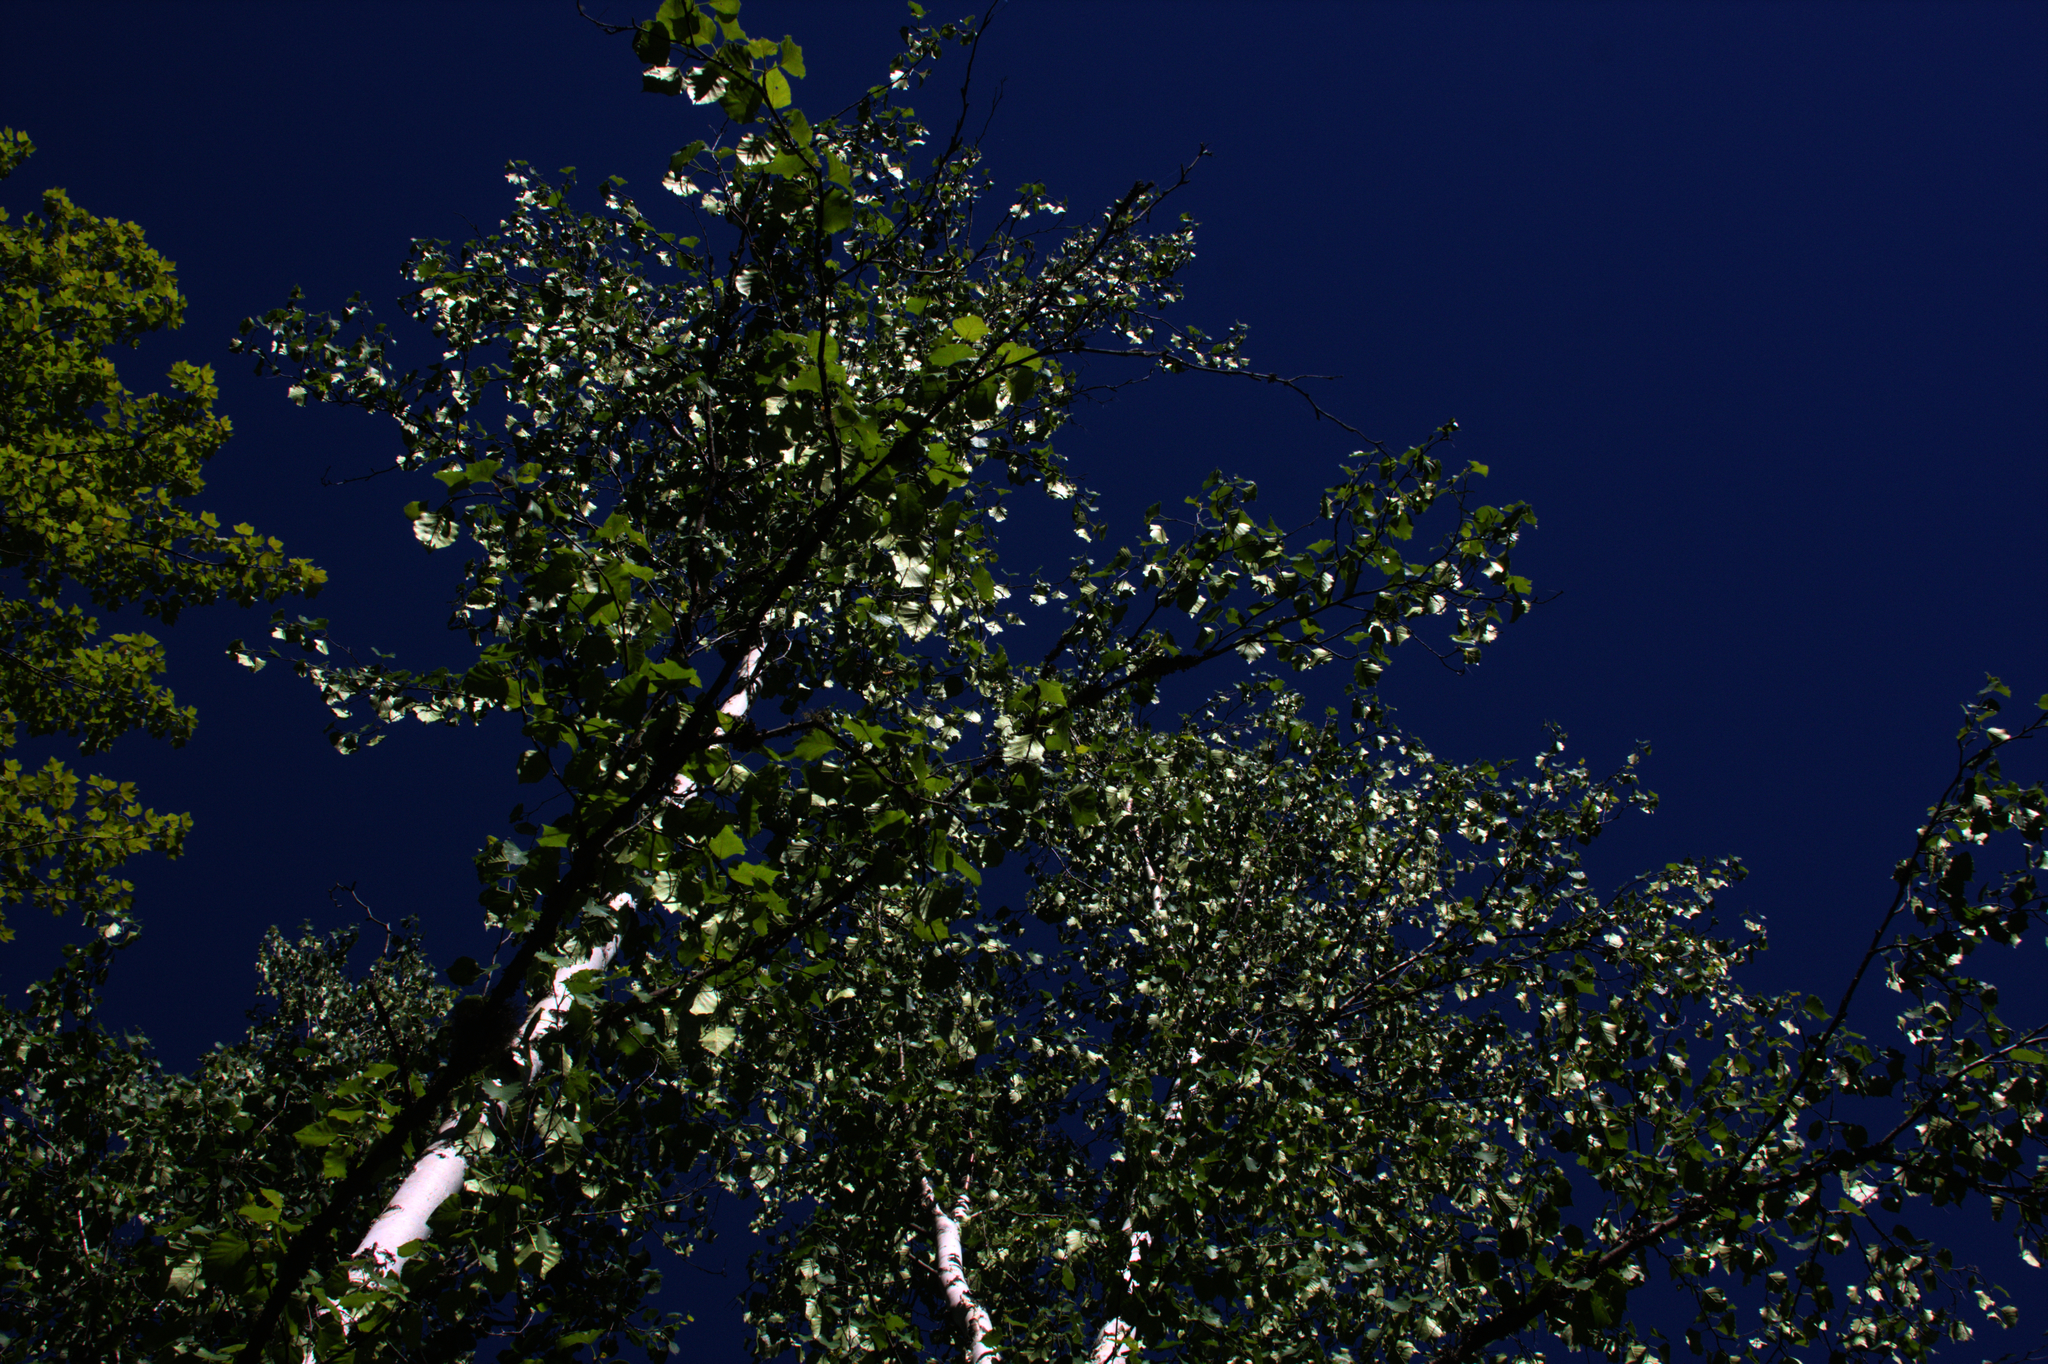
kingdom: Plantae
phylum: Tracheophyta
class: Magnoliopsida
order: Fagales
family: Betulaceae
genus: Betula
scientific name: Betula papyrifera
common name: Paper birch
